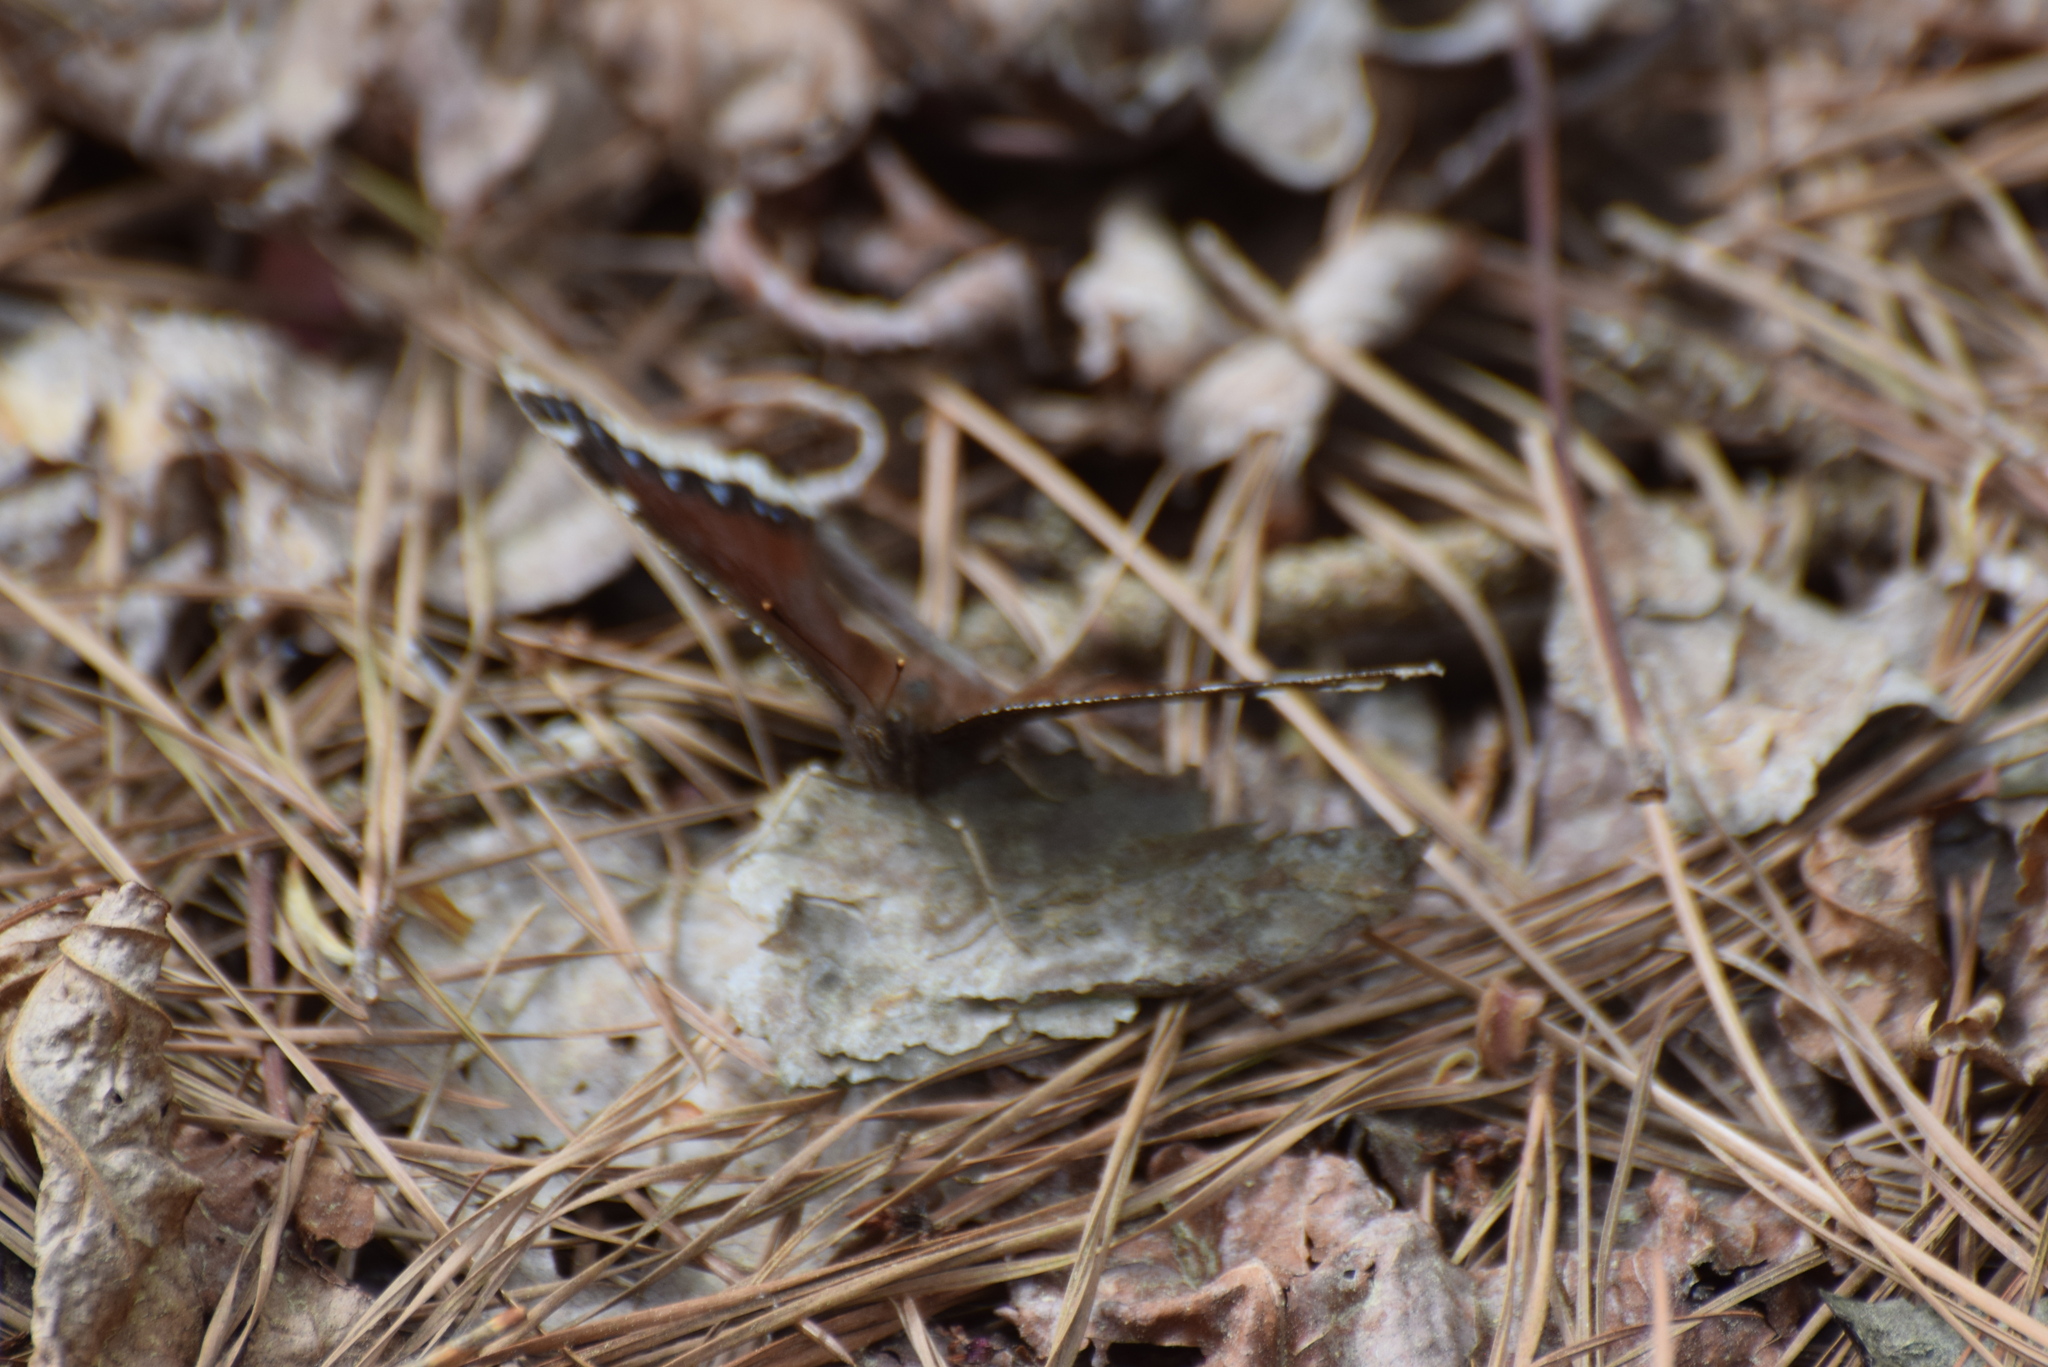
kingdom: Animalia
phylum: Arthropoda
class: Insecta
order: Lepidoptera
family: Nymphalidae
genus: Nymphalis
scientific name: Nymphalis antiopa
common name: Camberwell beauty
